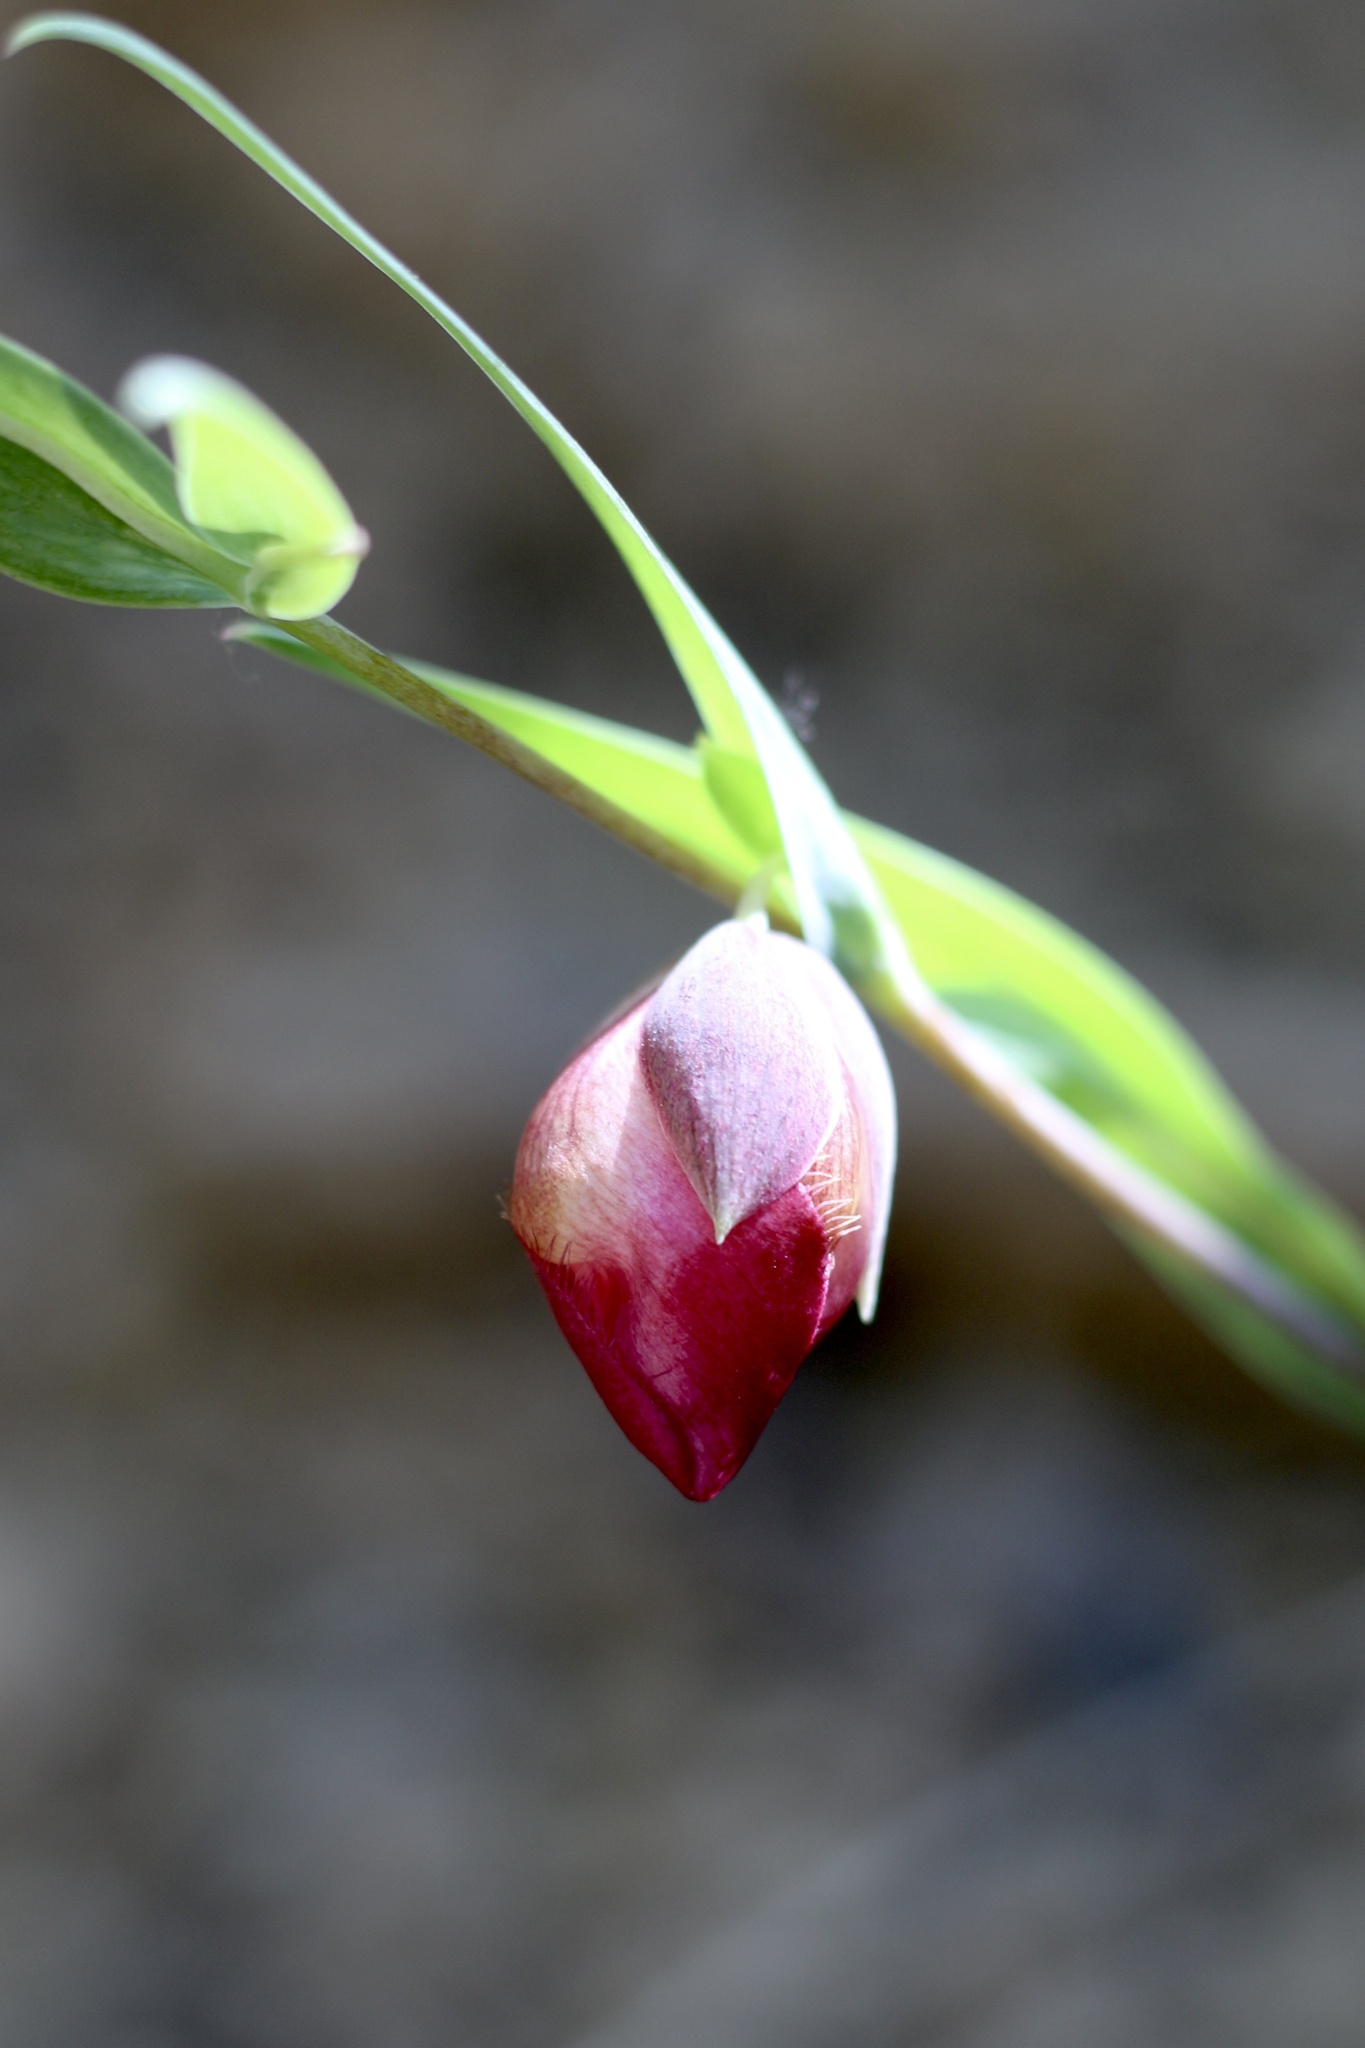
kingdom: Plantae
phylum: Tracheophyta
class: Liliopsida
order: Liliales
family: Liliaceae
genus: Calochortus
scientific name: Calochortus albus
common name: Fairy-lantern
